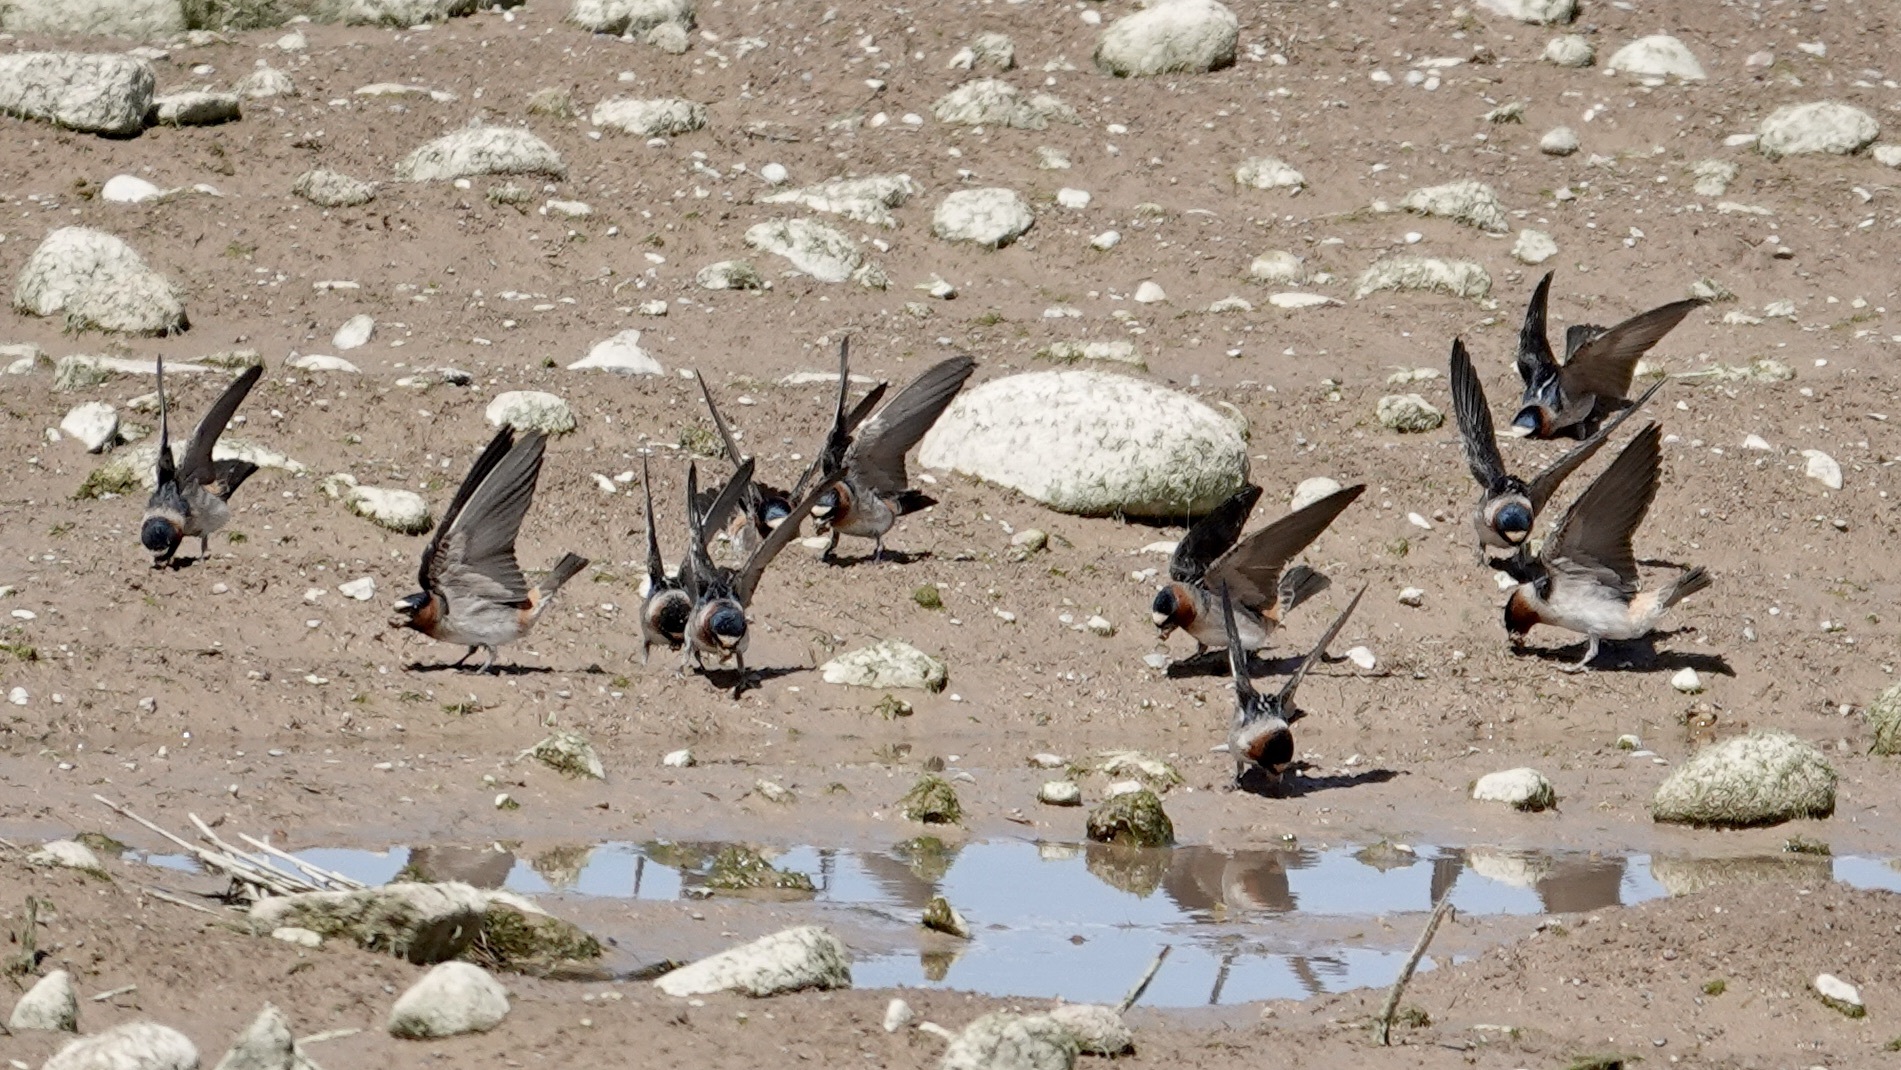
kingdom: Animalia
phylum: Chordata
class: Aves
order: Passeriformes
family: Hirundinidae
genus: Petrochelidon
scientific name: Petrochelidon pyrrhonota
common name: American cliff swallow
